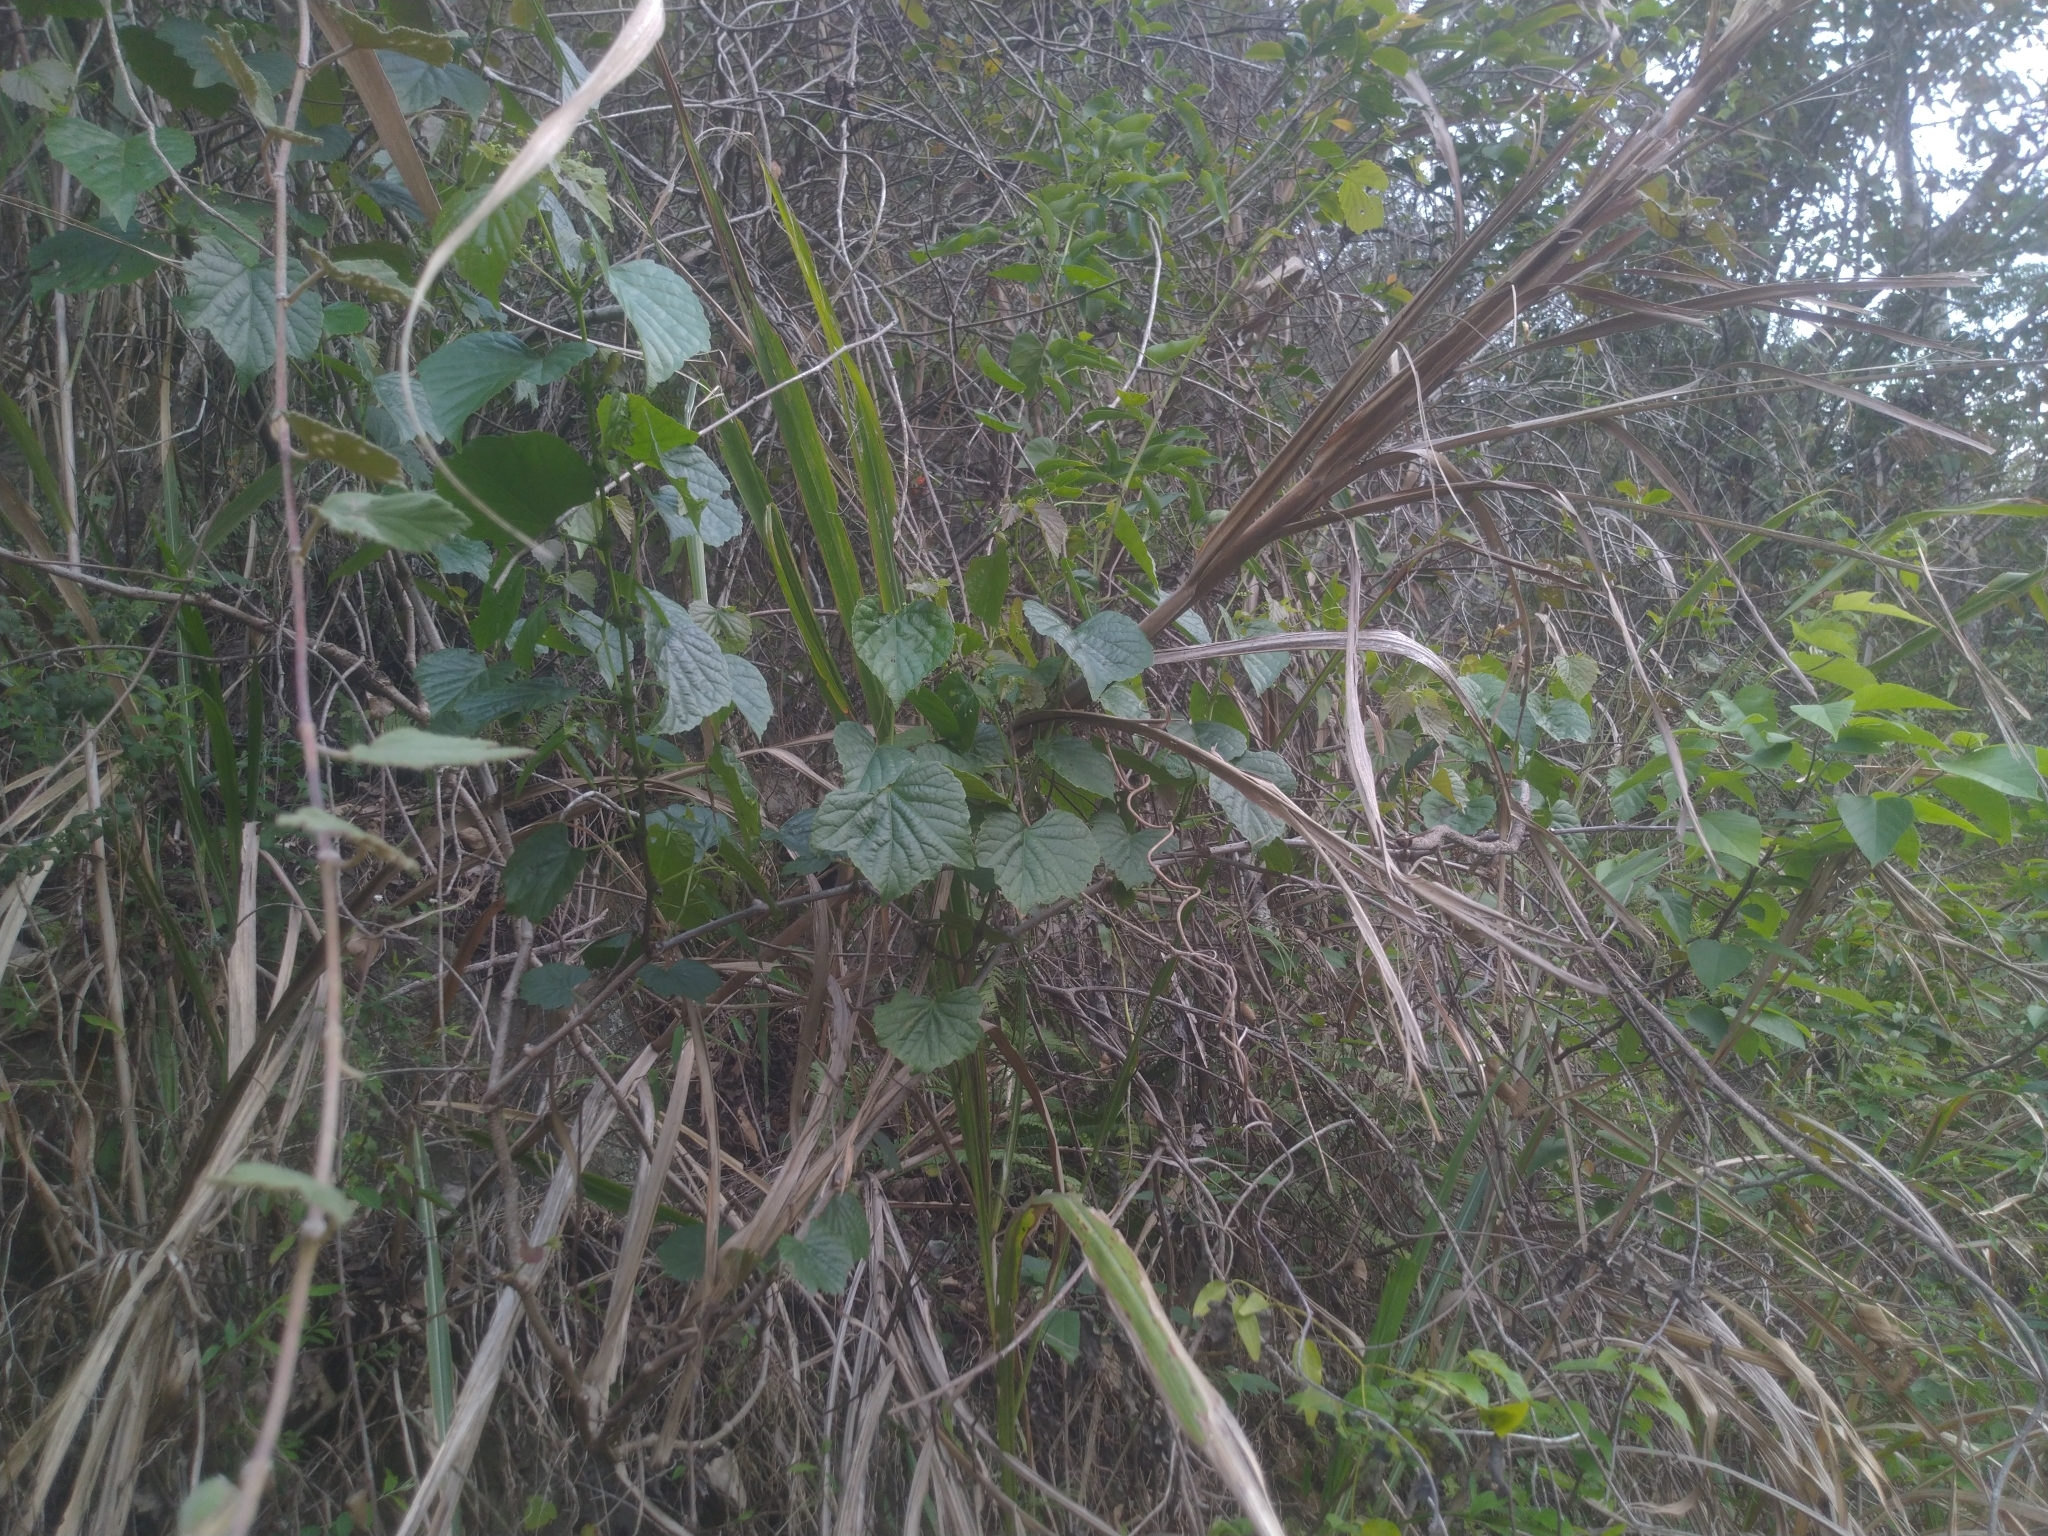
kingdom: Plantae
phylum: Tracheophyta
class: Magnoliopsida
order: Vitales
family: Vitaceae
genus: Ampelopsis
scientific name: Ampelopsis glandulosa
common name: Amur peppervine
